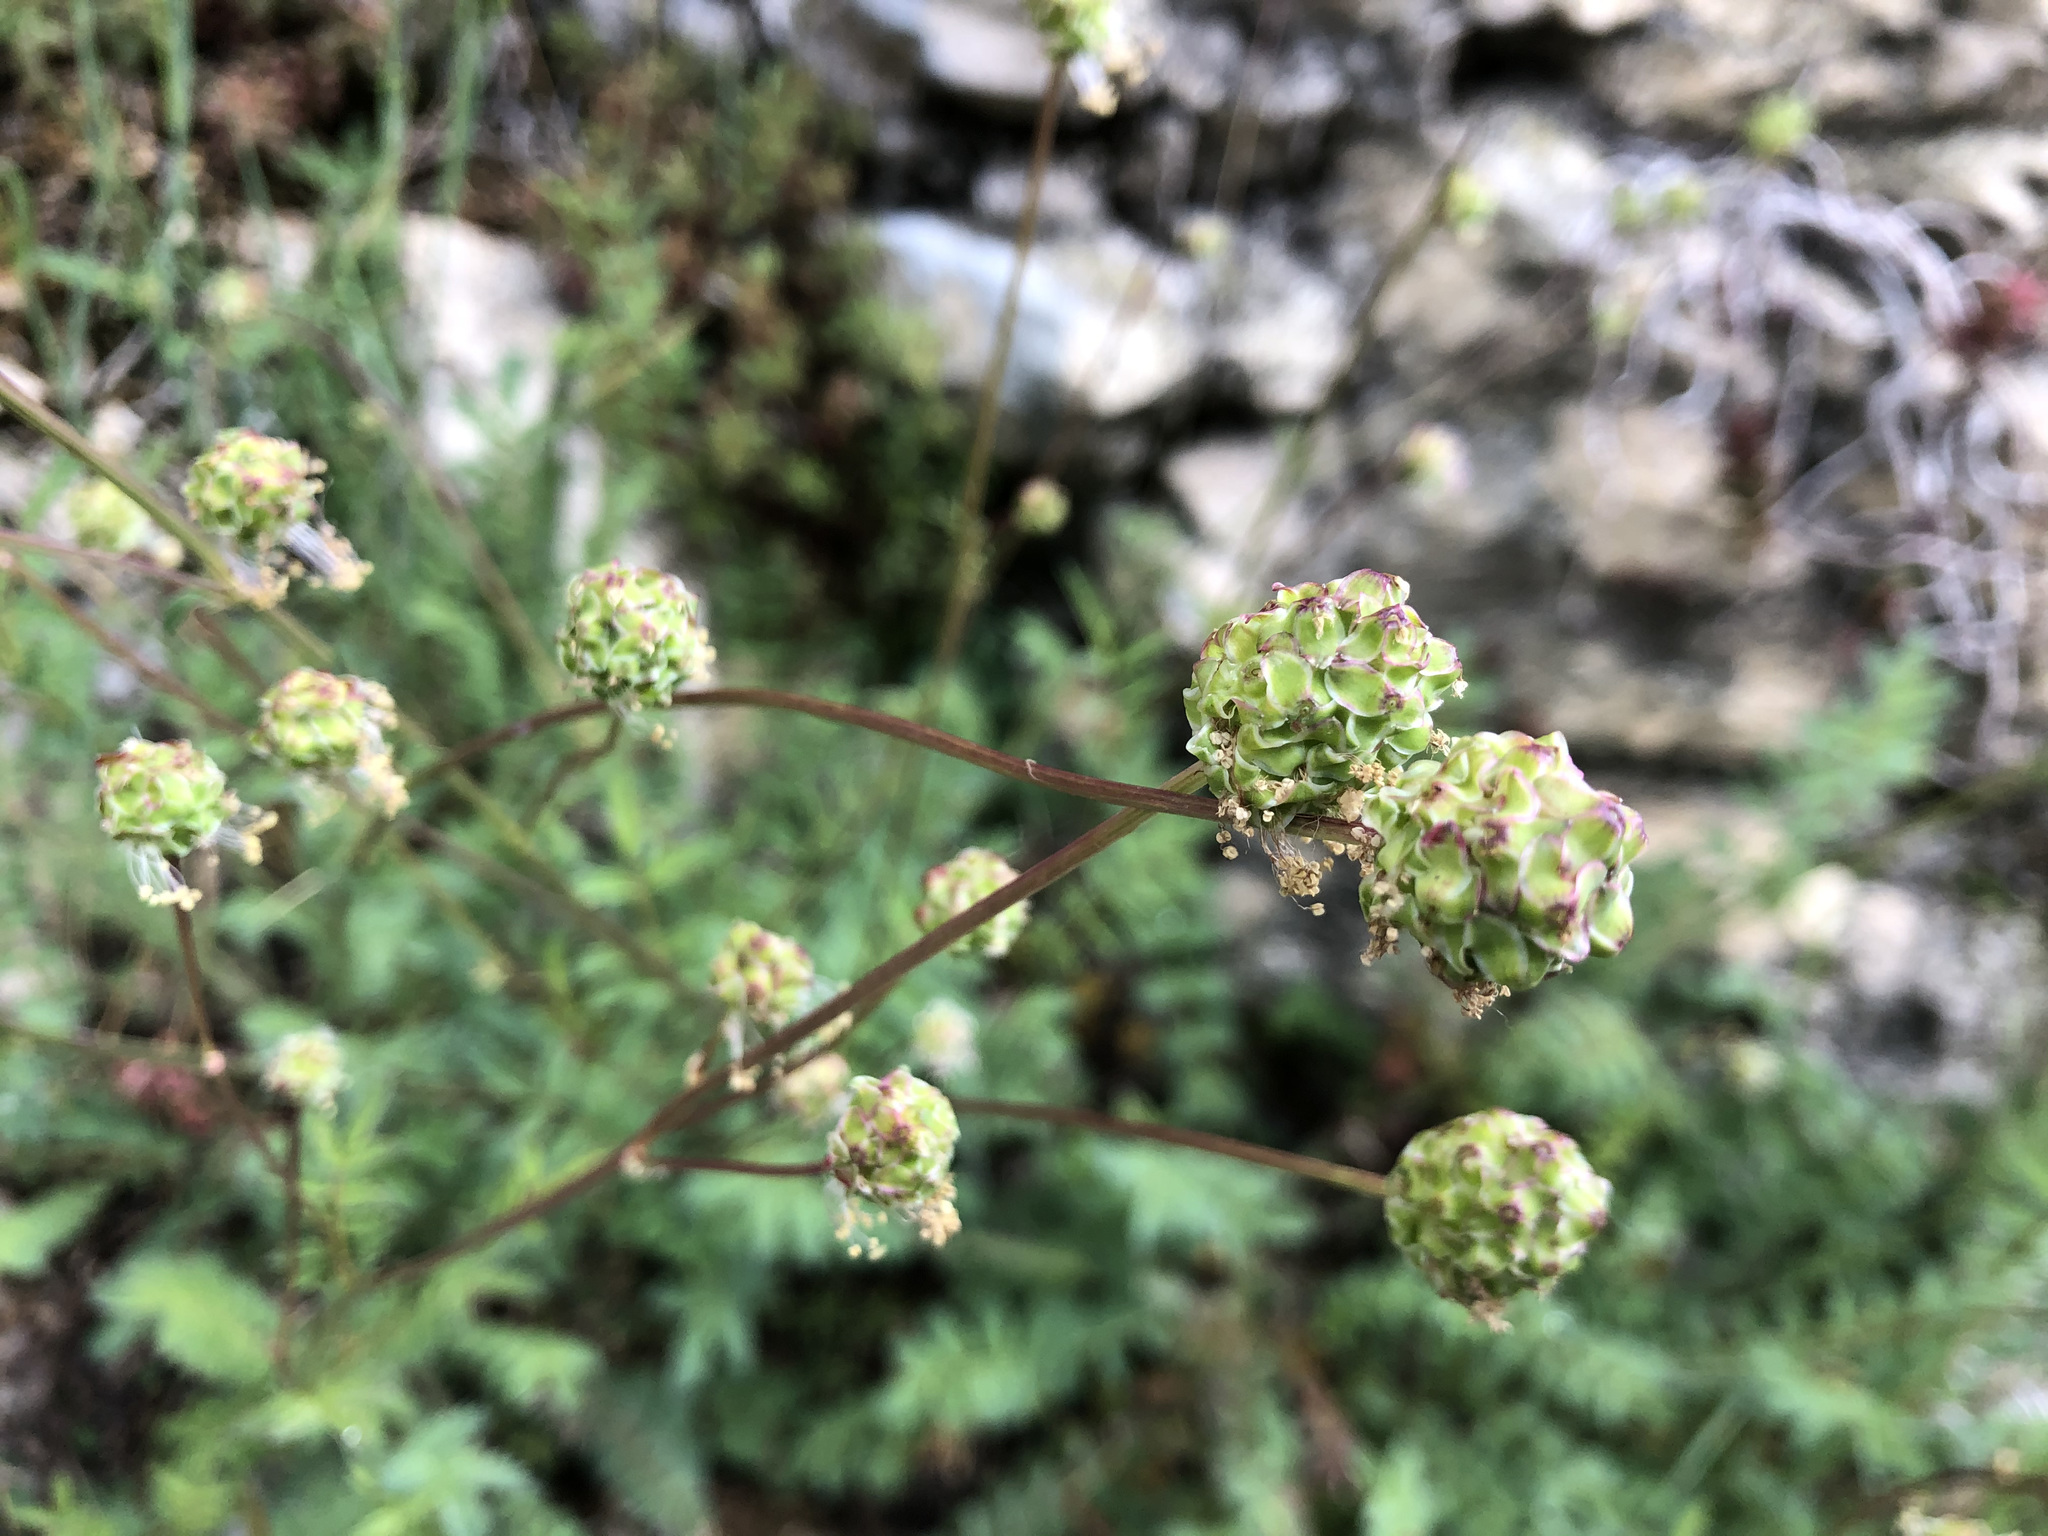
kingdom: Plantae
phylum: Tracheophyta
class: Magnoliopsida
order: Rosales
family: Rosaceae
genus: Poterium
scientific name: Poterium sanguisorba
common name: Salad burnet
